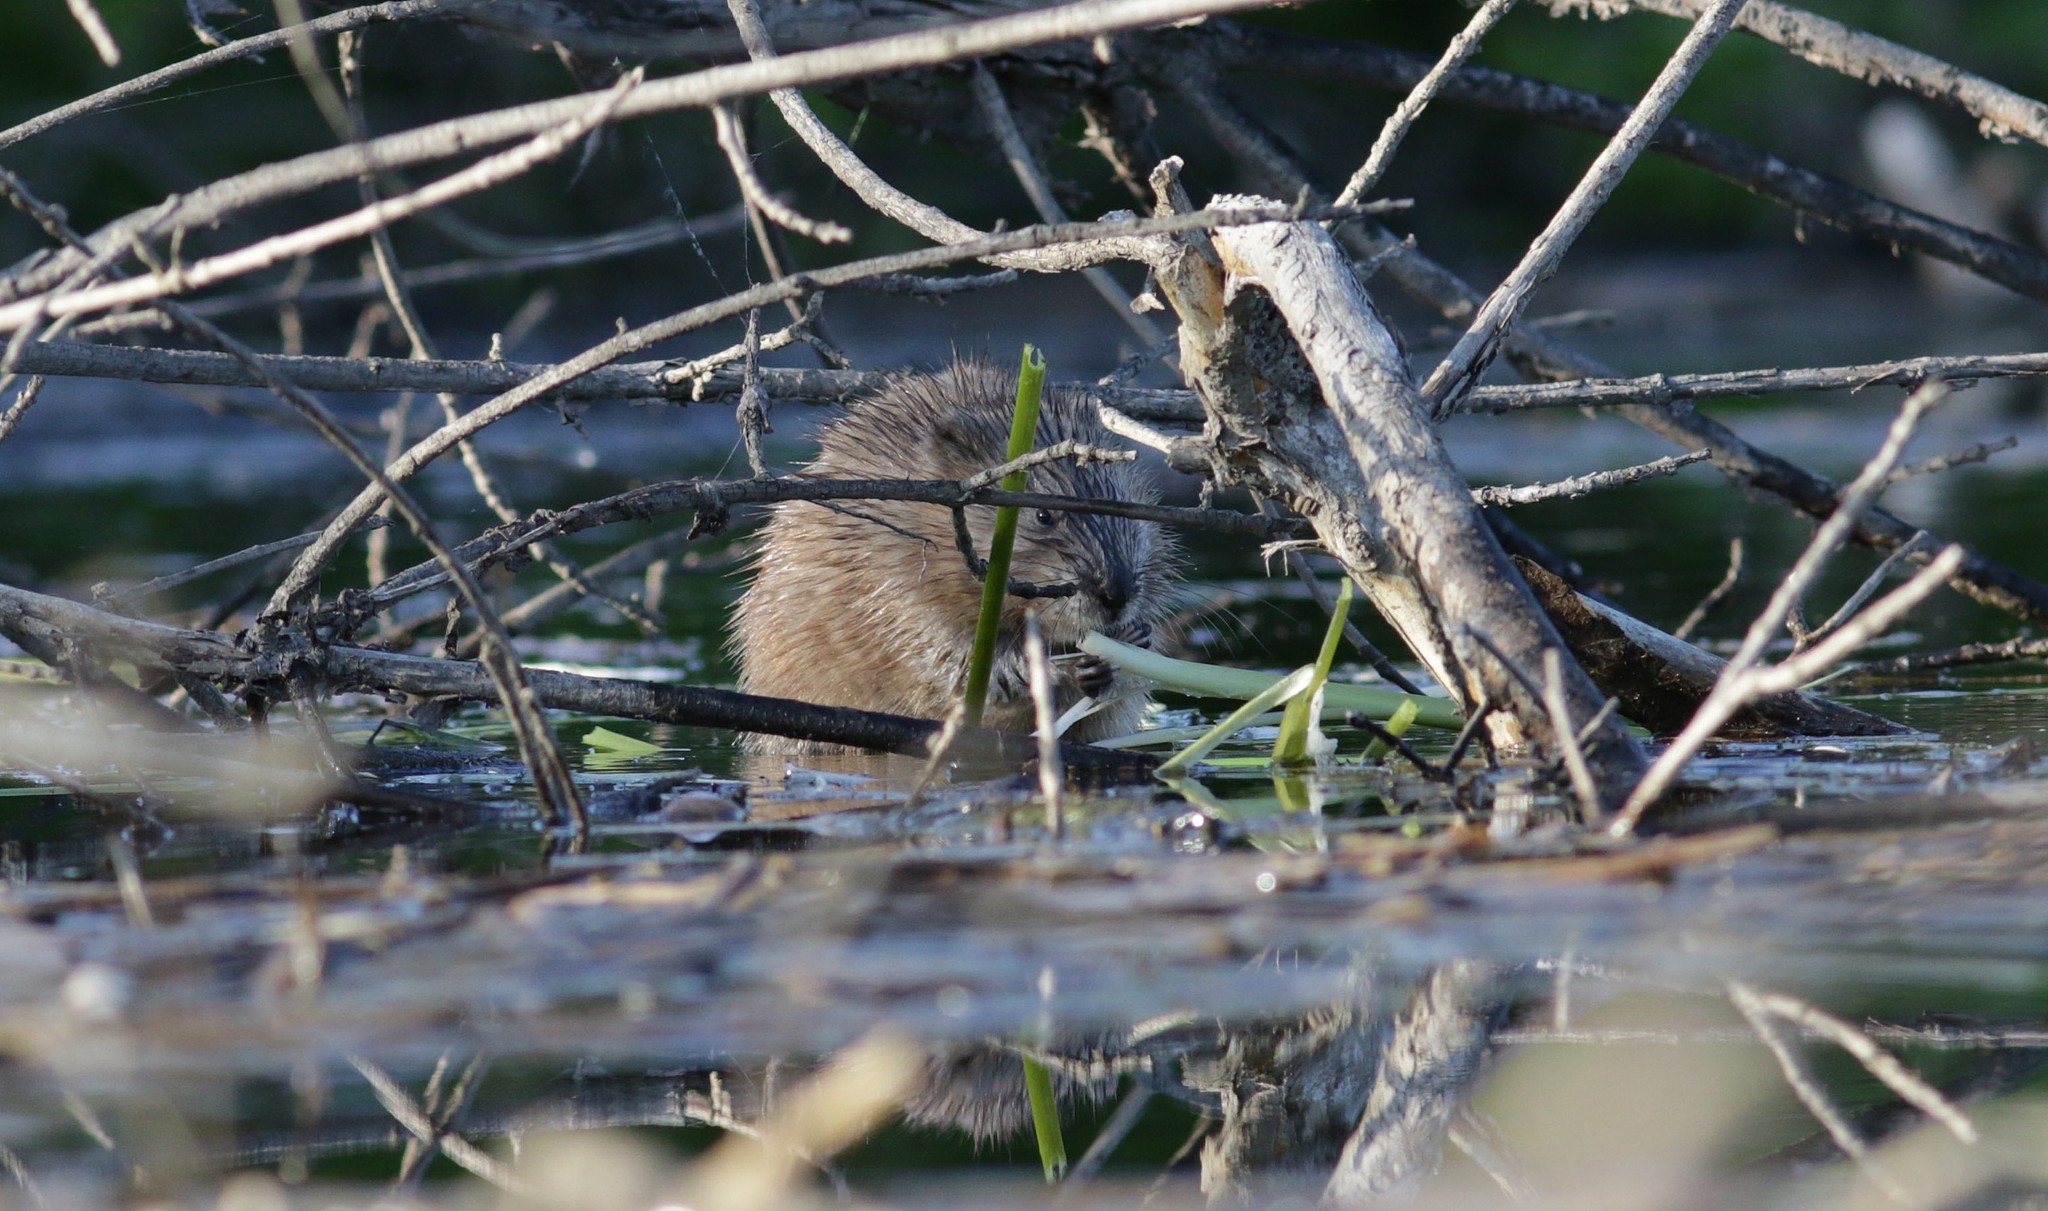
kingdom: Animalia
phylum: Chordata
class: Mammalia
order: Rodentia
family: Cricetidae
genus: Ondatra
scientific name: Ondatra zibethicus
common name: Muskrat
